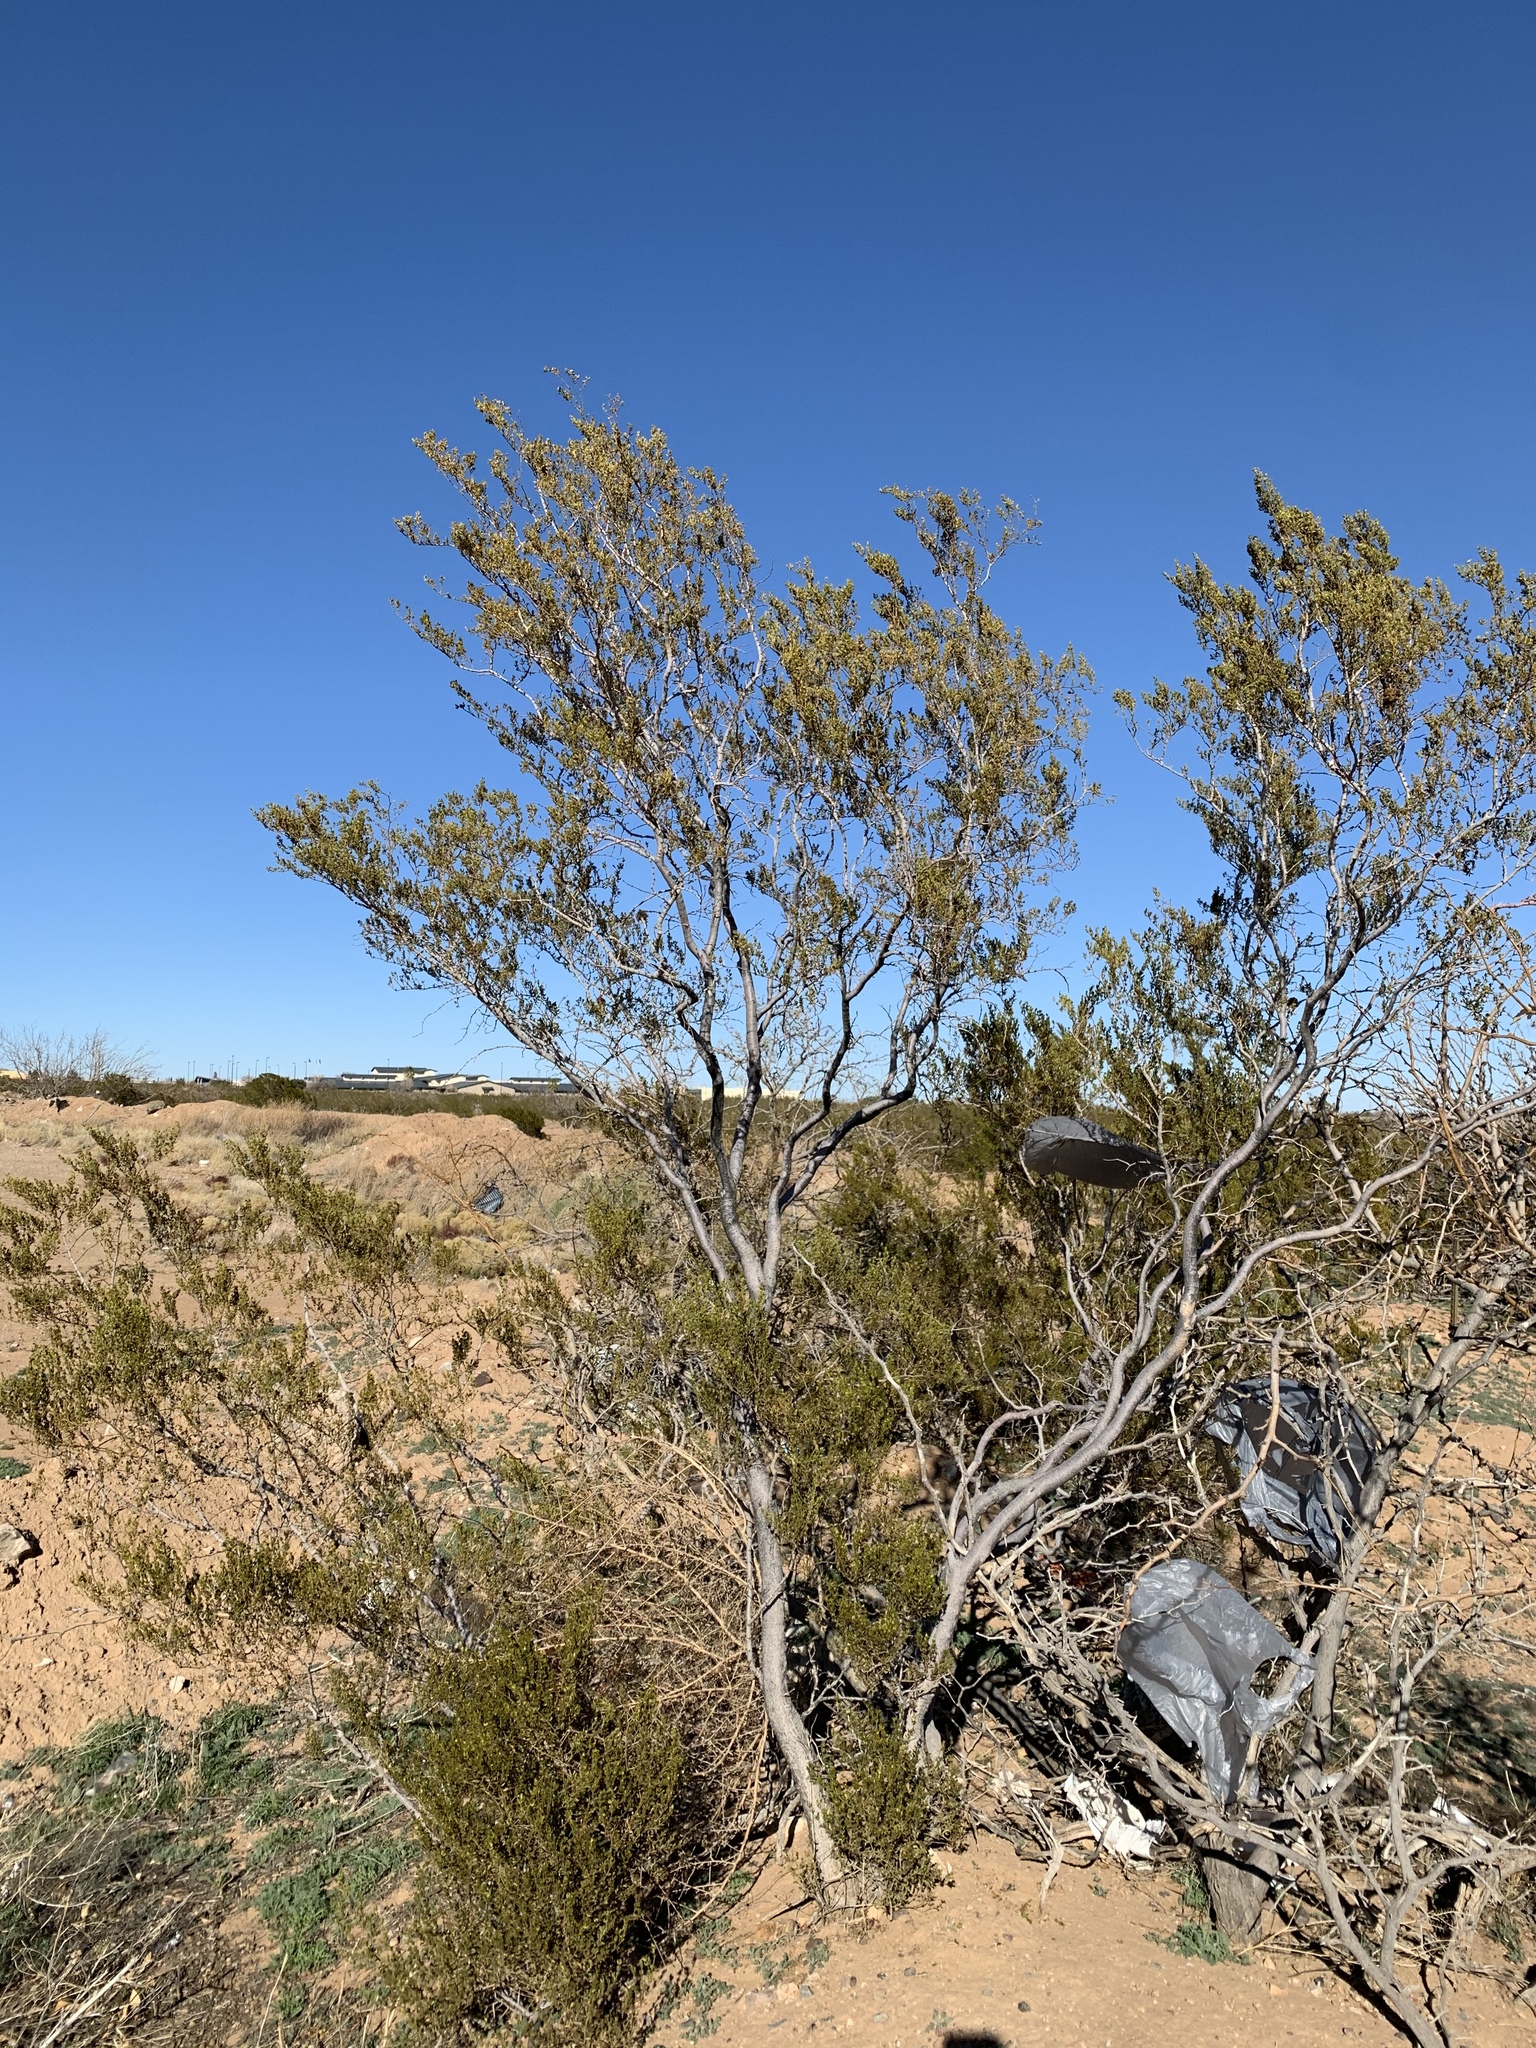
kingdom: Plantae
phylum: Tracheophyta
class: Magnoliopsida
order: Zygophyllales
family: Zygophyllaceae
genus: Larrea
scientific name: Larrea tridentata
